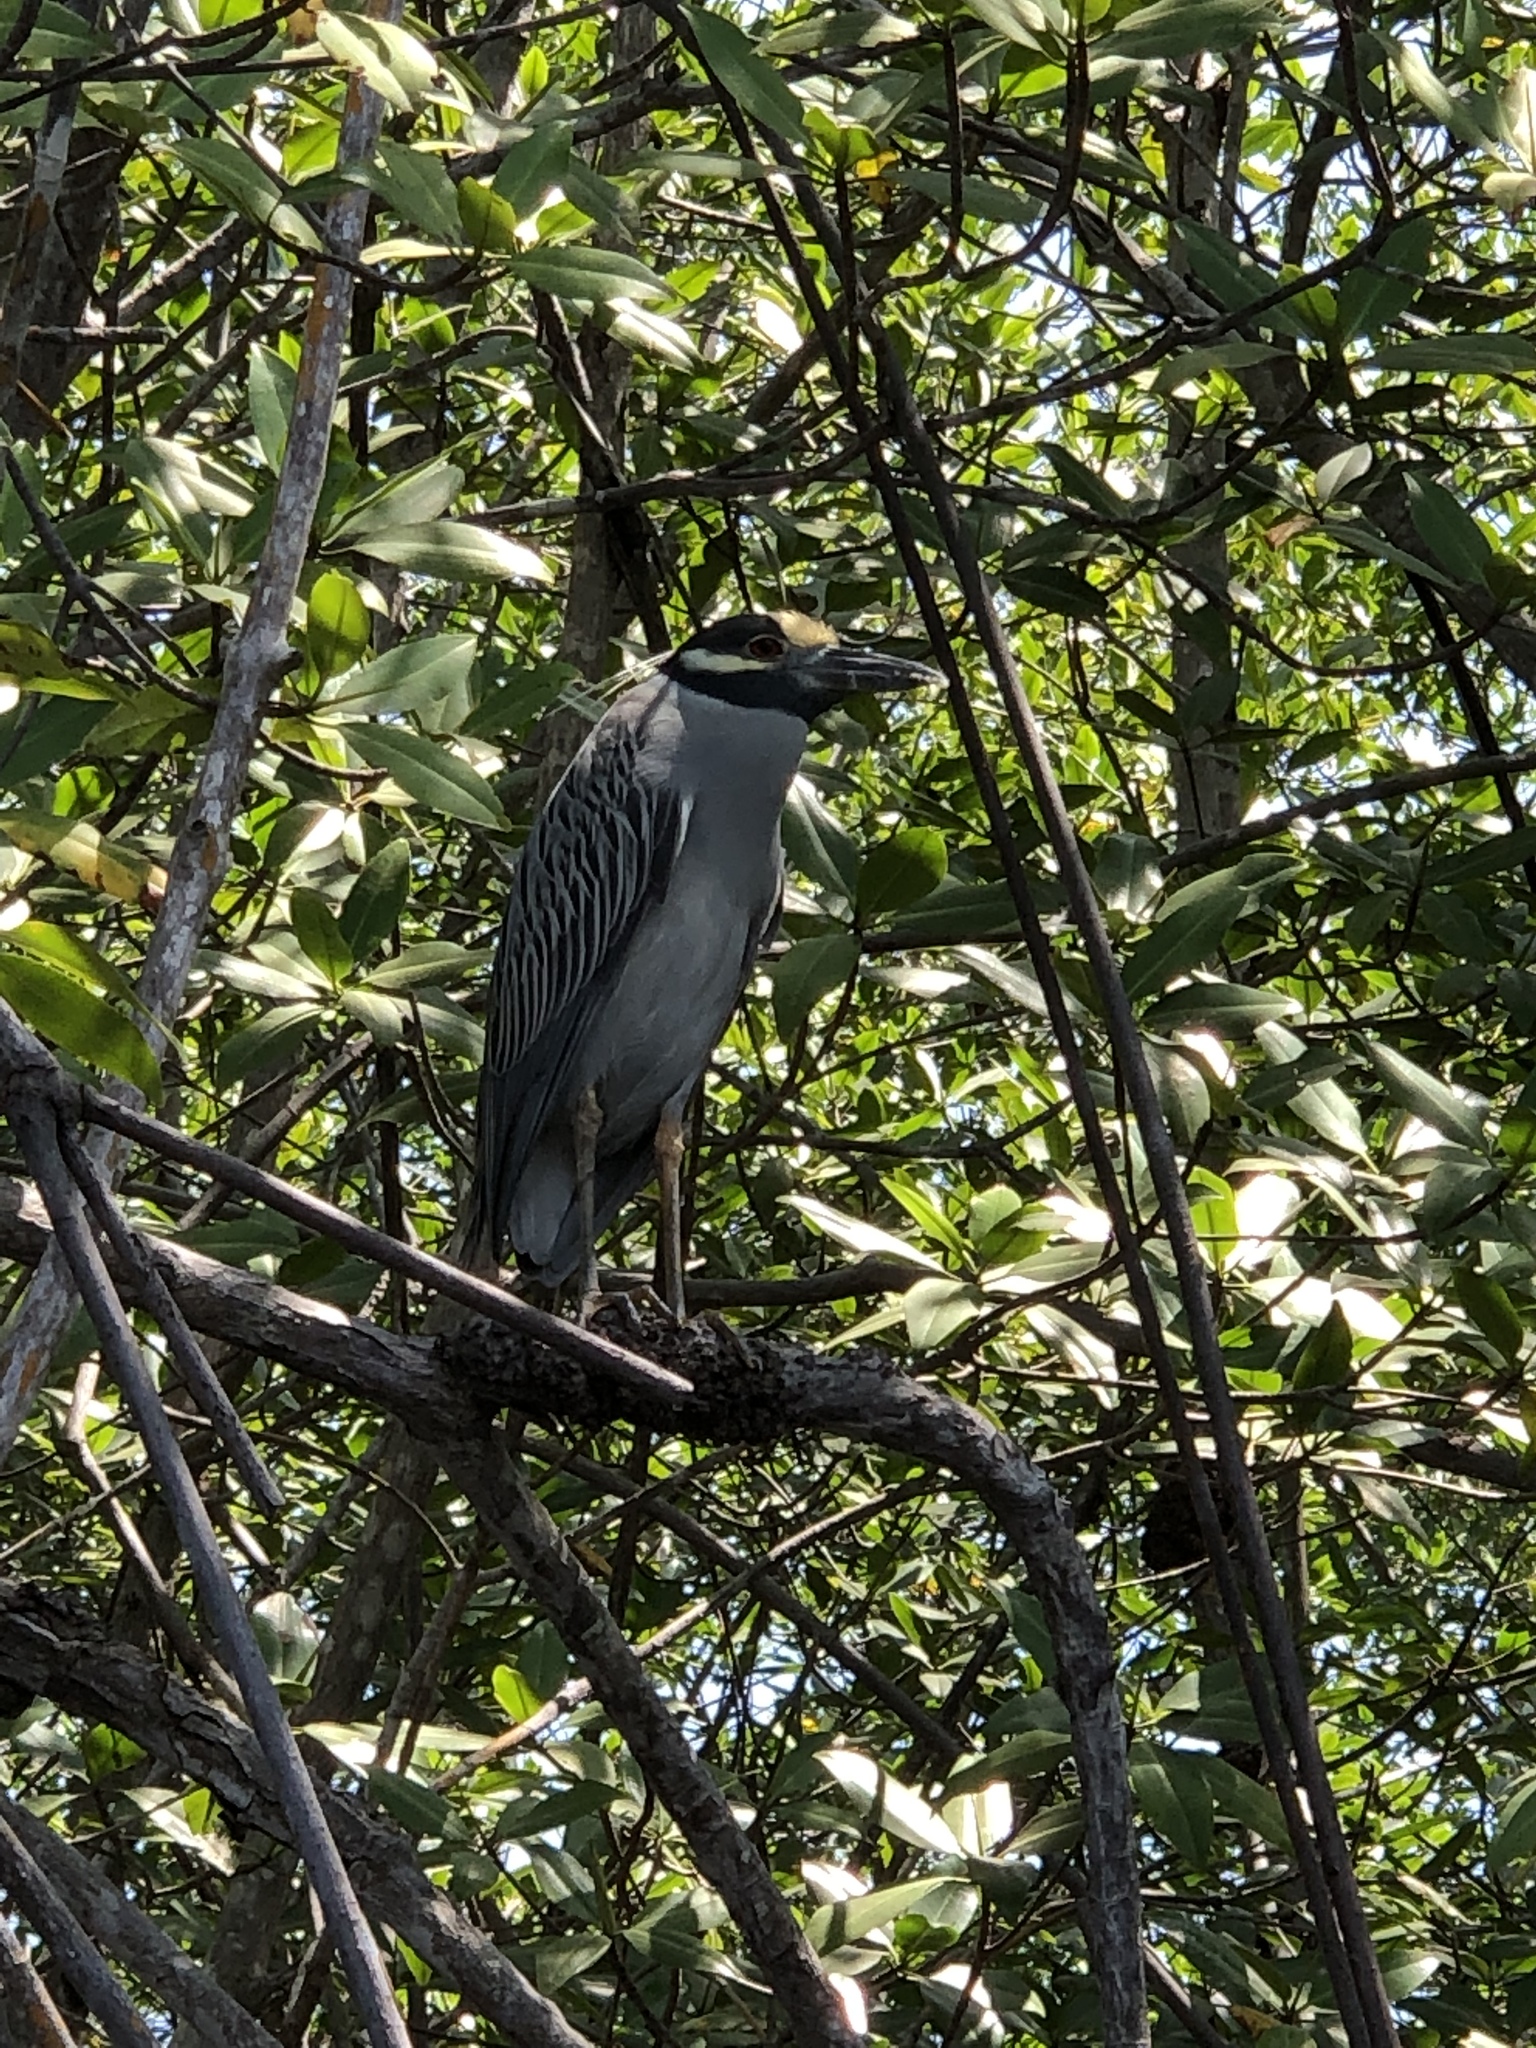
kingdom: Animalia
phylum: Chordata
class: Aves
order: Pelecaniformes
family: Ardeidae
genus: Nyctanassa
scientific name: Nyctanassa violacea
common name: Yellow-crowned night heron
